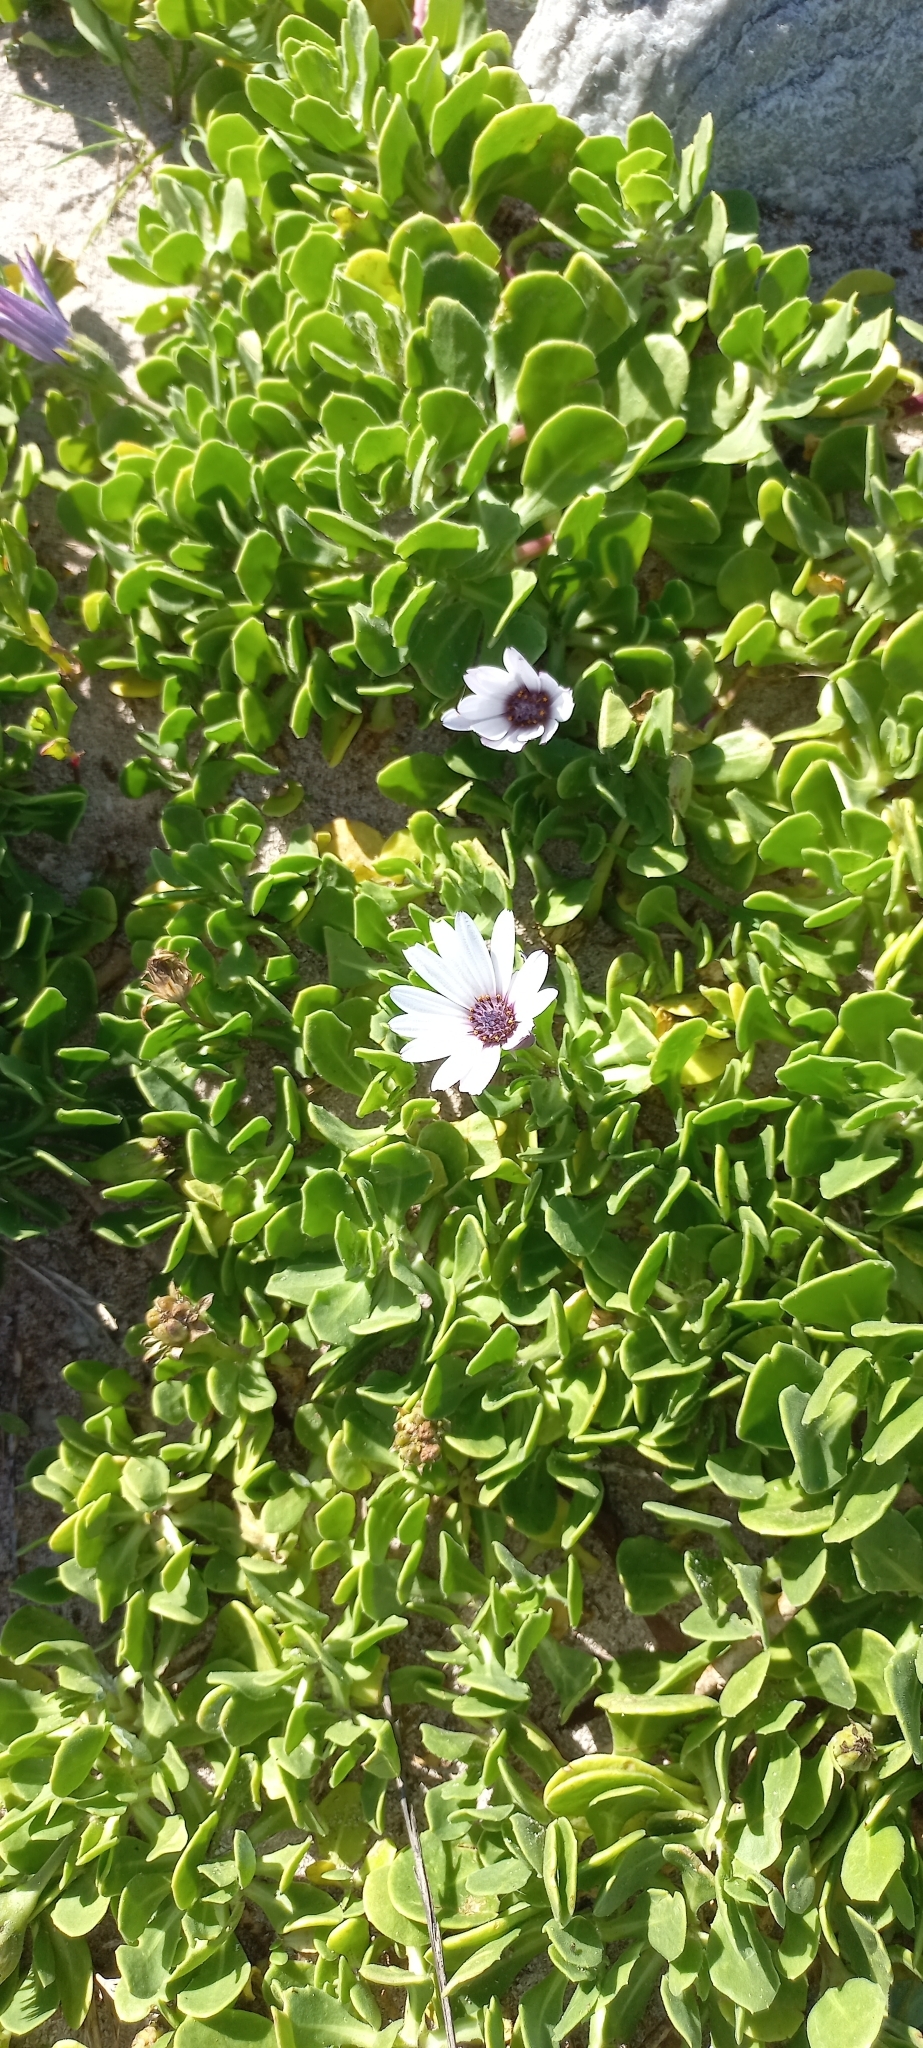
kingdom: Plantae
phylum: Tracheophyta
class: Magnoliopsida
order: Asterales
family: Asteraceae
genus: Dimorphotheca
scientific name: Dimorphotheca fruticosa
